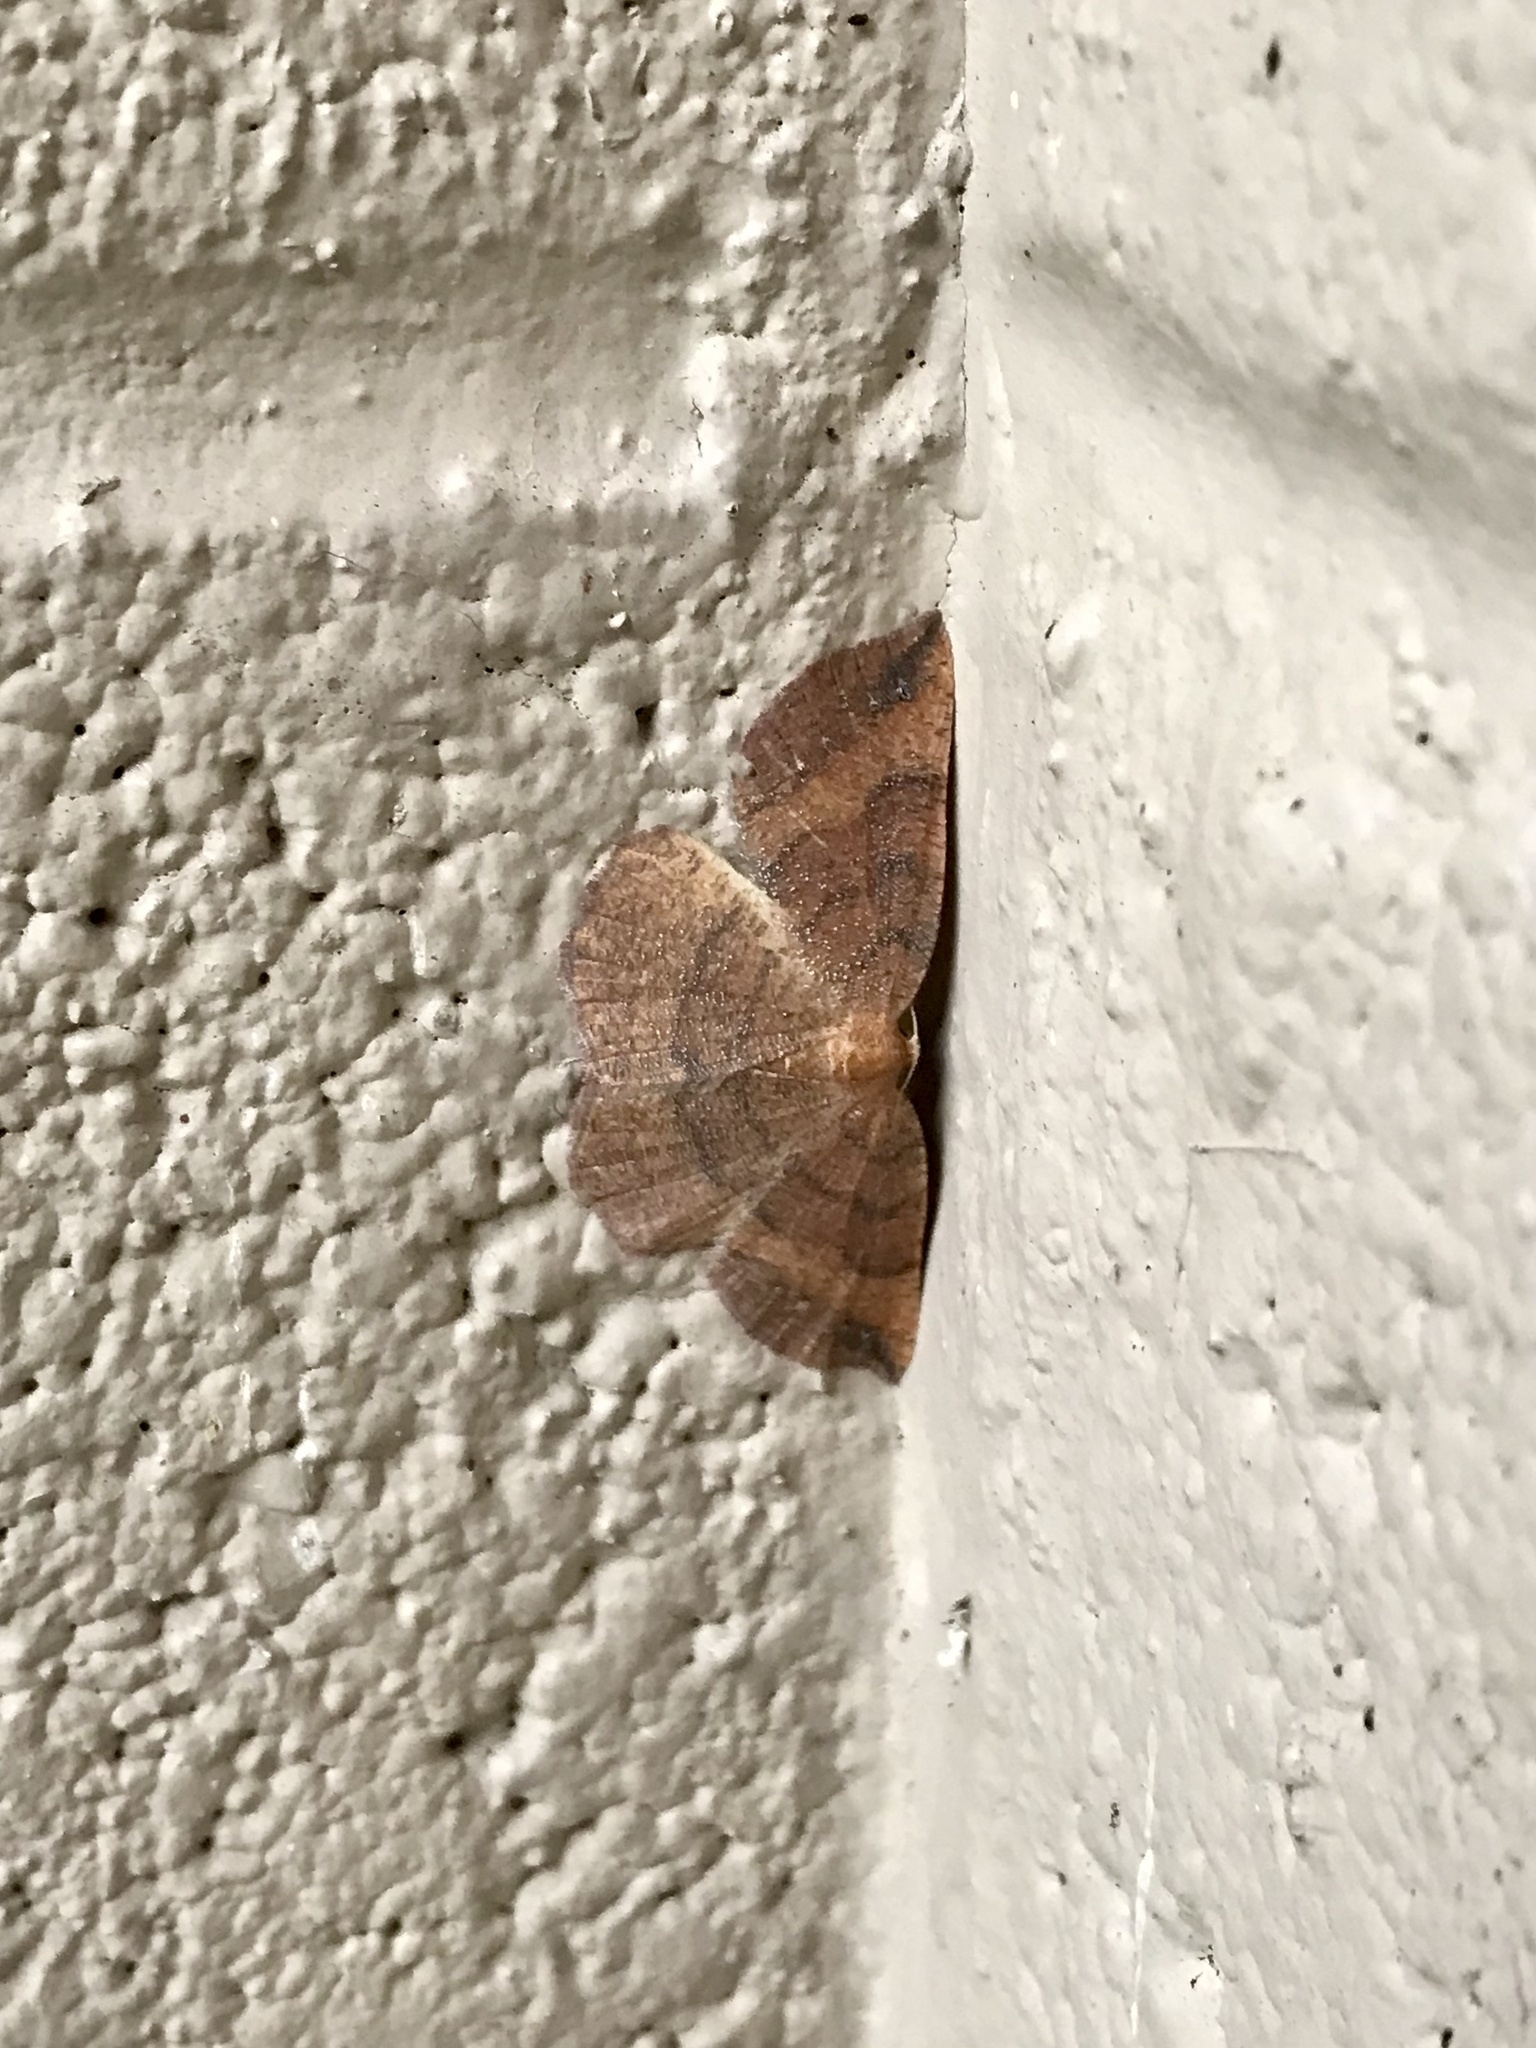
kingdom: Animalia
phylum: Arthropoda
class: Insecta
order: Lepidoptera
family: Geometridae
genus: Apodrepanulatrix
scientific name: Apodrepanulatrix liberaria
